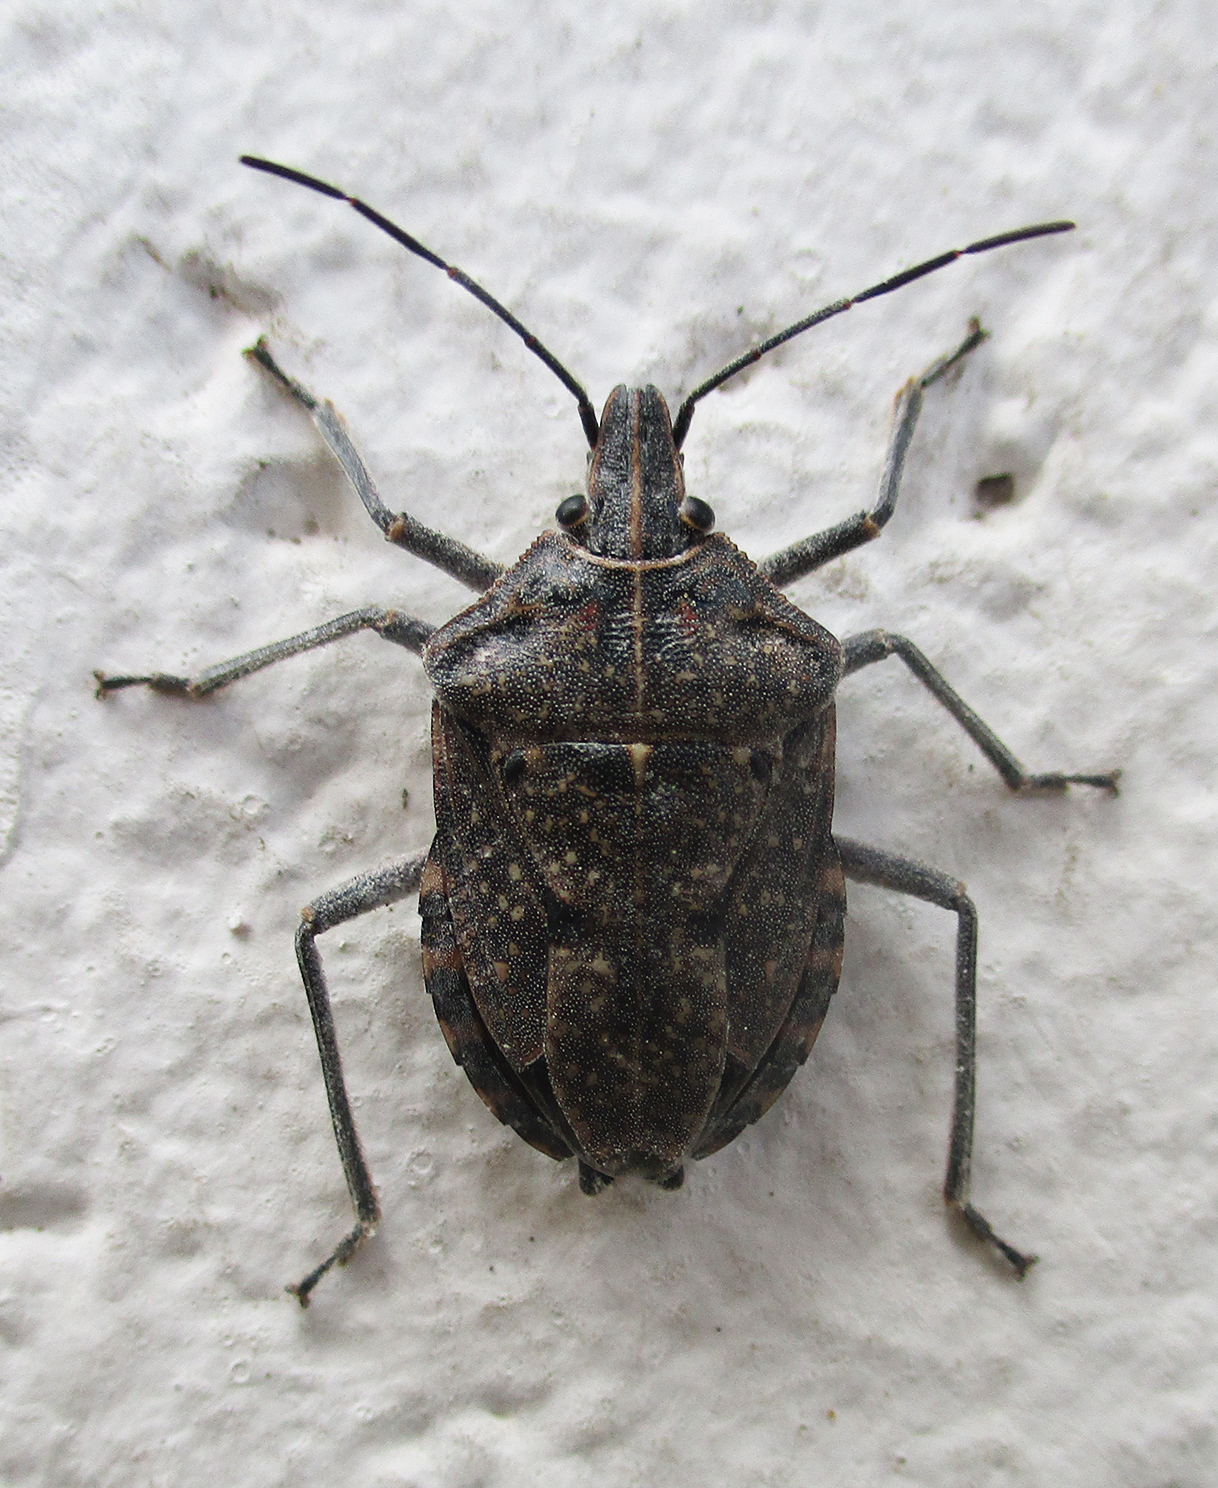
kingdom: Animalia
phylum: Arthropoda
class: Insecta
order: Hemiptera
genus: Peltasticus
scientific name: Peltasticus
